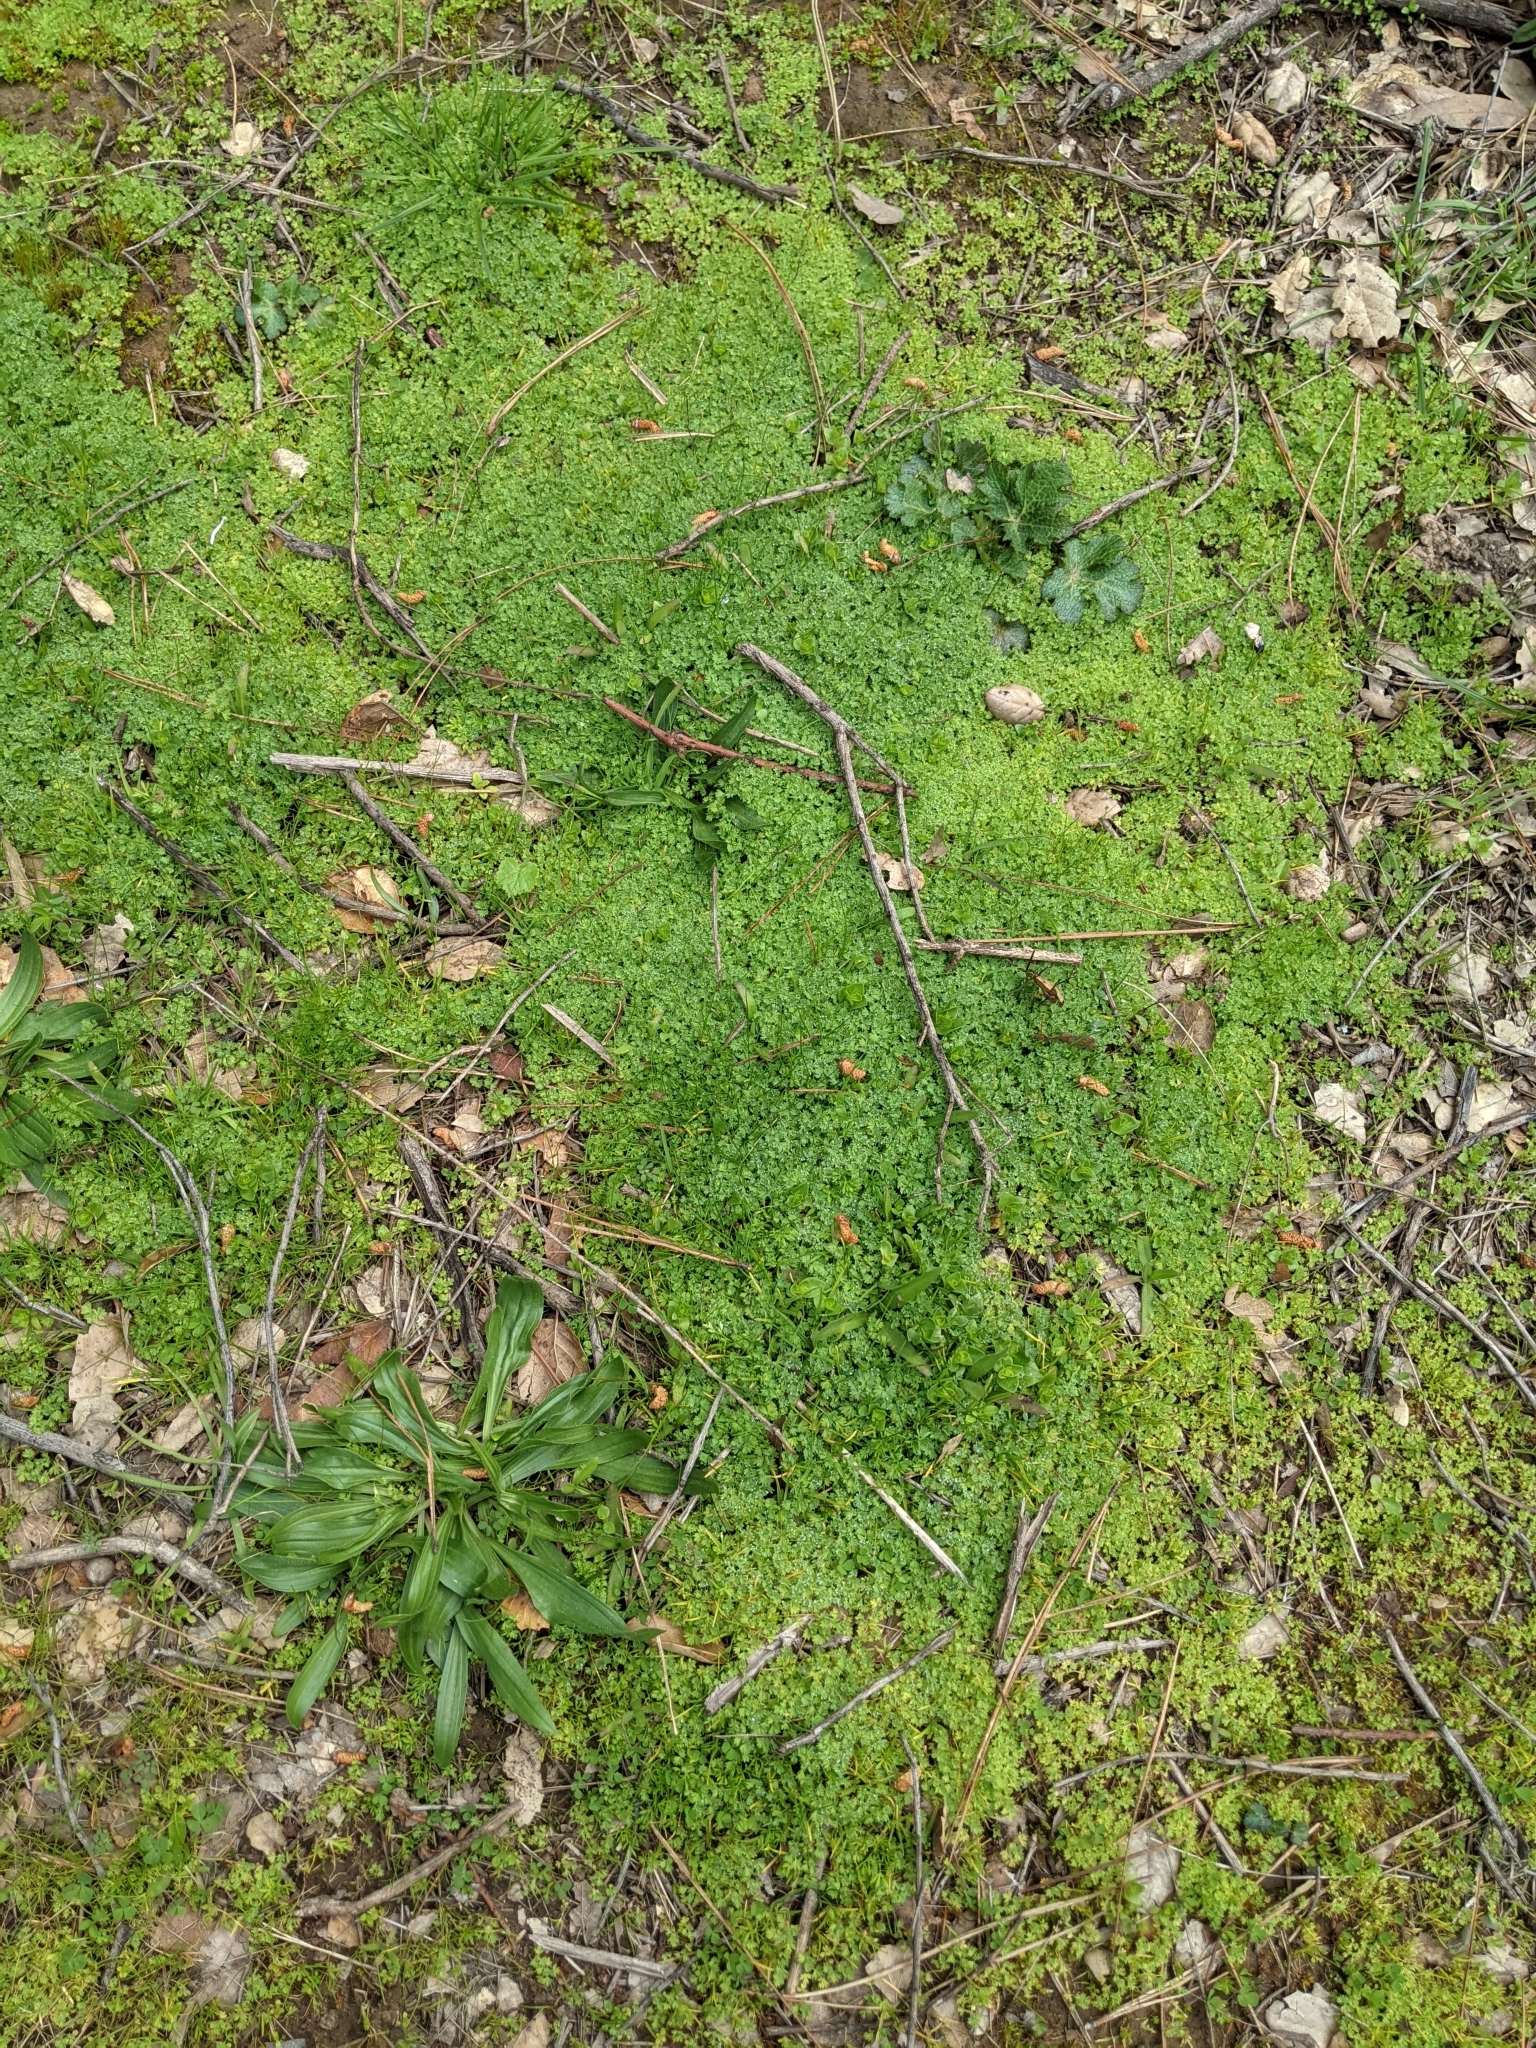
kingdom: Plantae
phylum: Tracheophyta
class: Magnoliopsida
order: Rosales
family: Rosaceae
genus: Aphanes
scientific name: Aphanes arvensis
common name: Parsley-piert
